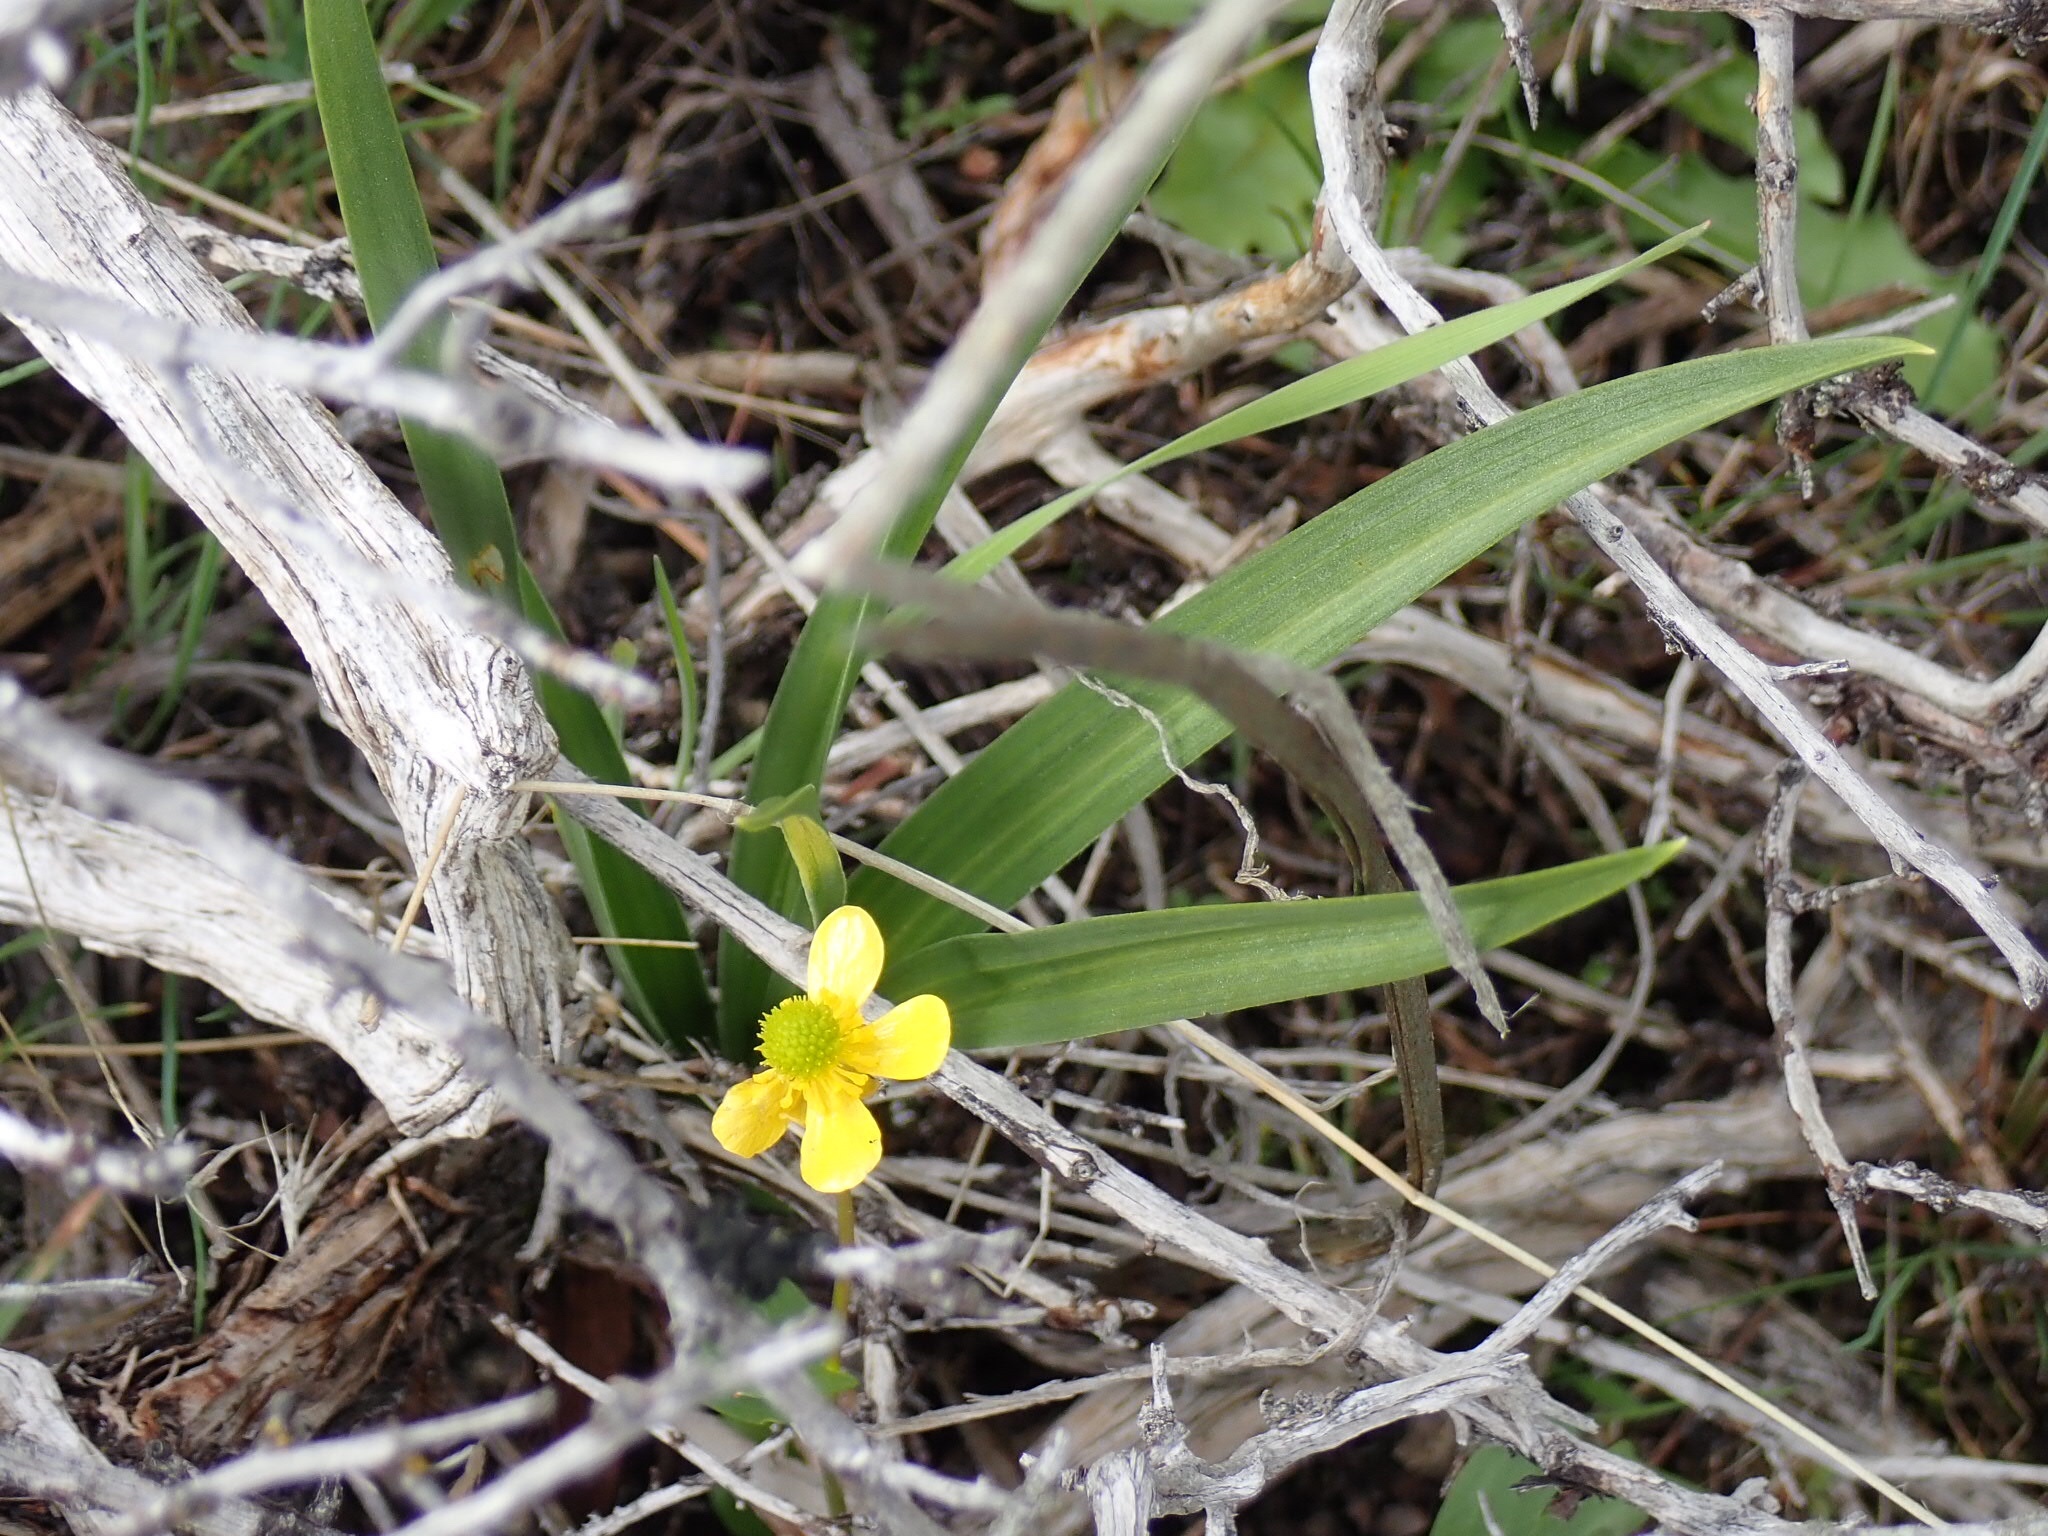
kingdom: Plantae
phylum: Tracheophyta
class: Magnoliopsida
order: Ranunculales
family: Ranunculaceae
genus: Ranunculus
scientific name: Ranunculus glaberrimus
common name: Sagebrush buttercup
